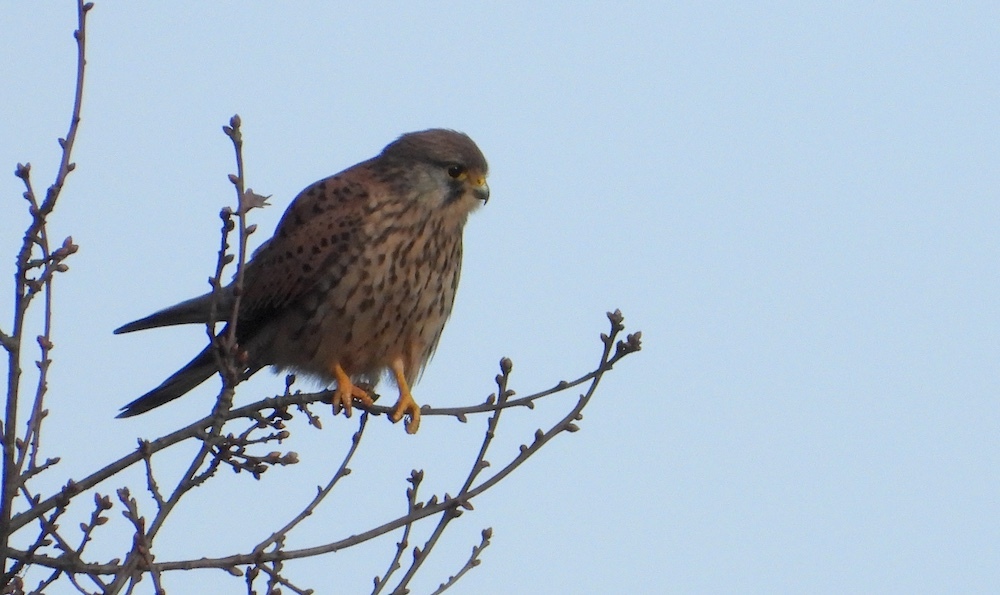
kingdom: Animalia
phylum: Chordata
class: Aves
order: Falconiformes
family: Falconidae
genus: Falco
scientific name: Falco tinnunculus
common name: Common kestrel
